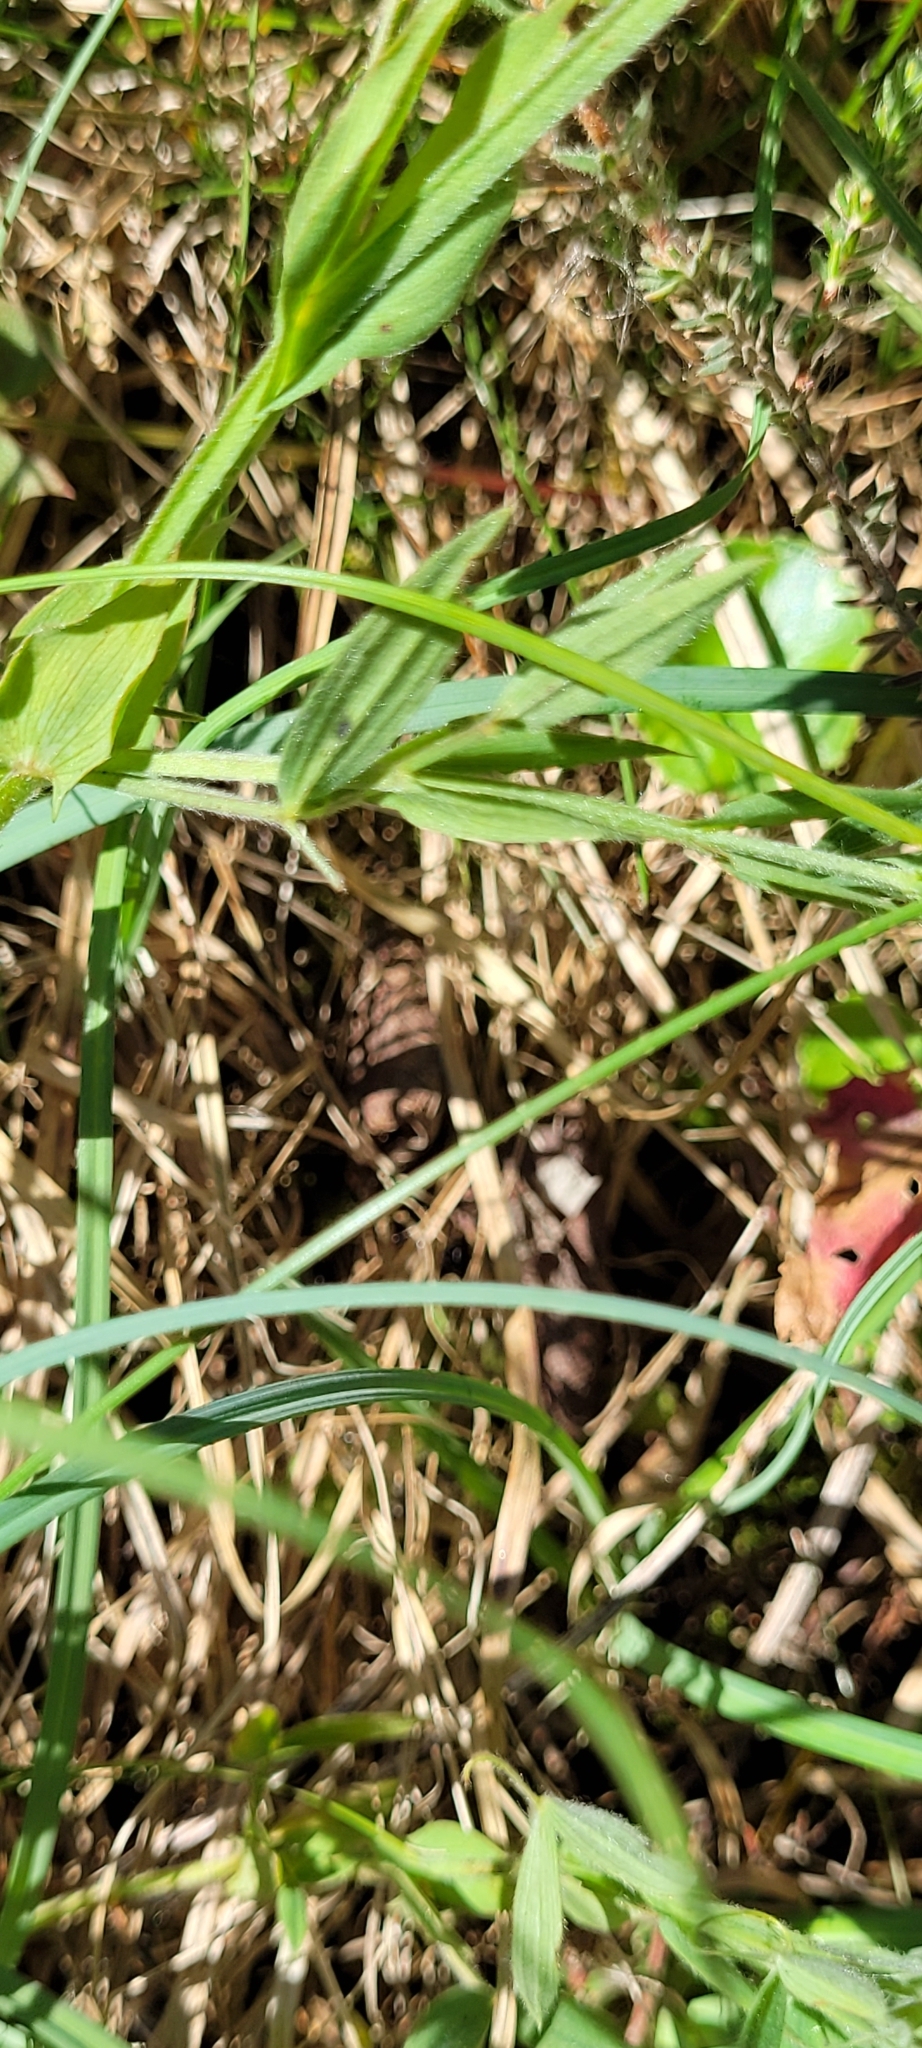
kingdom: Plantae
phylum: Tracheophyta
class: Magnoliopsida
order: Fabales
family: Fabaceae
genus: Lathyrus
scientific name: Lathyrus pratensis
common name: Meadow vetchling
